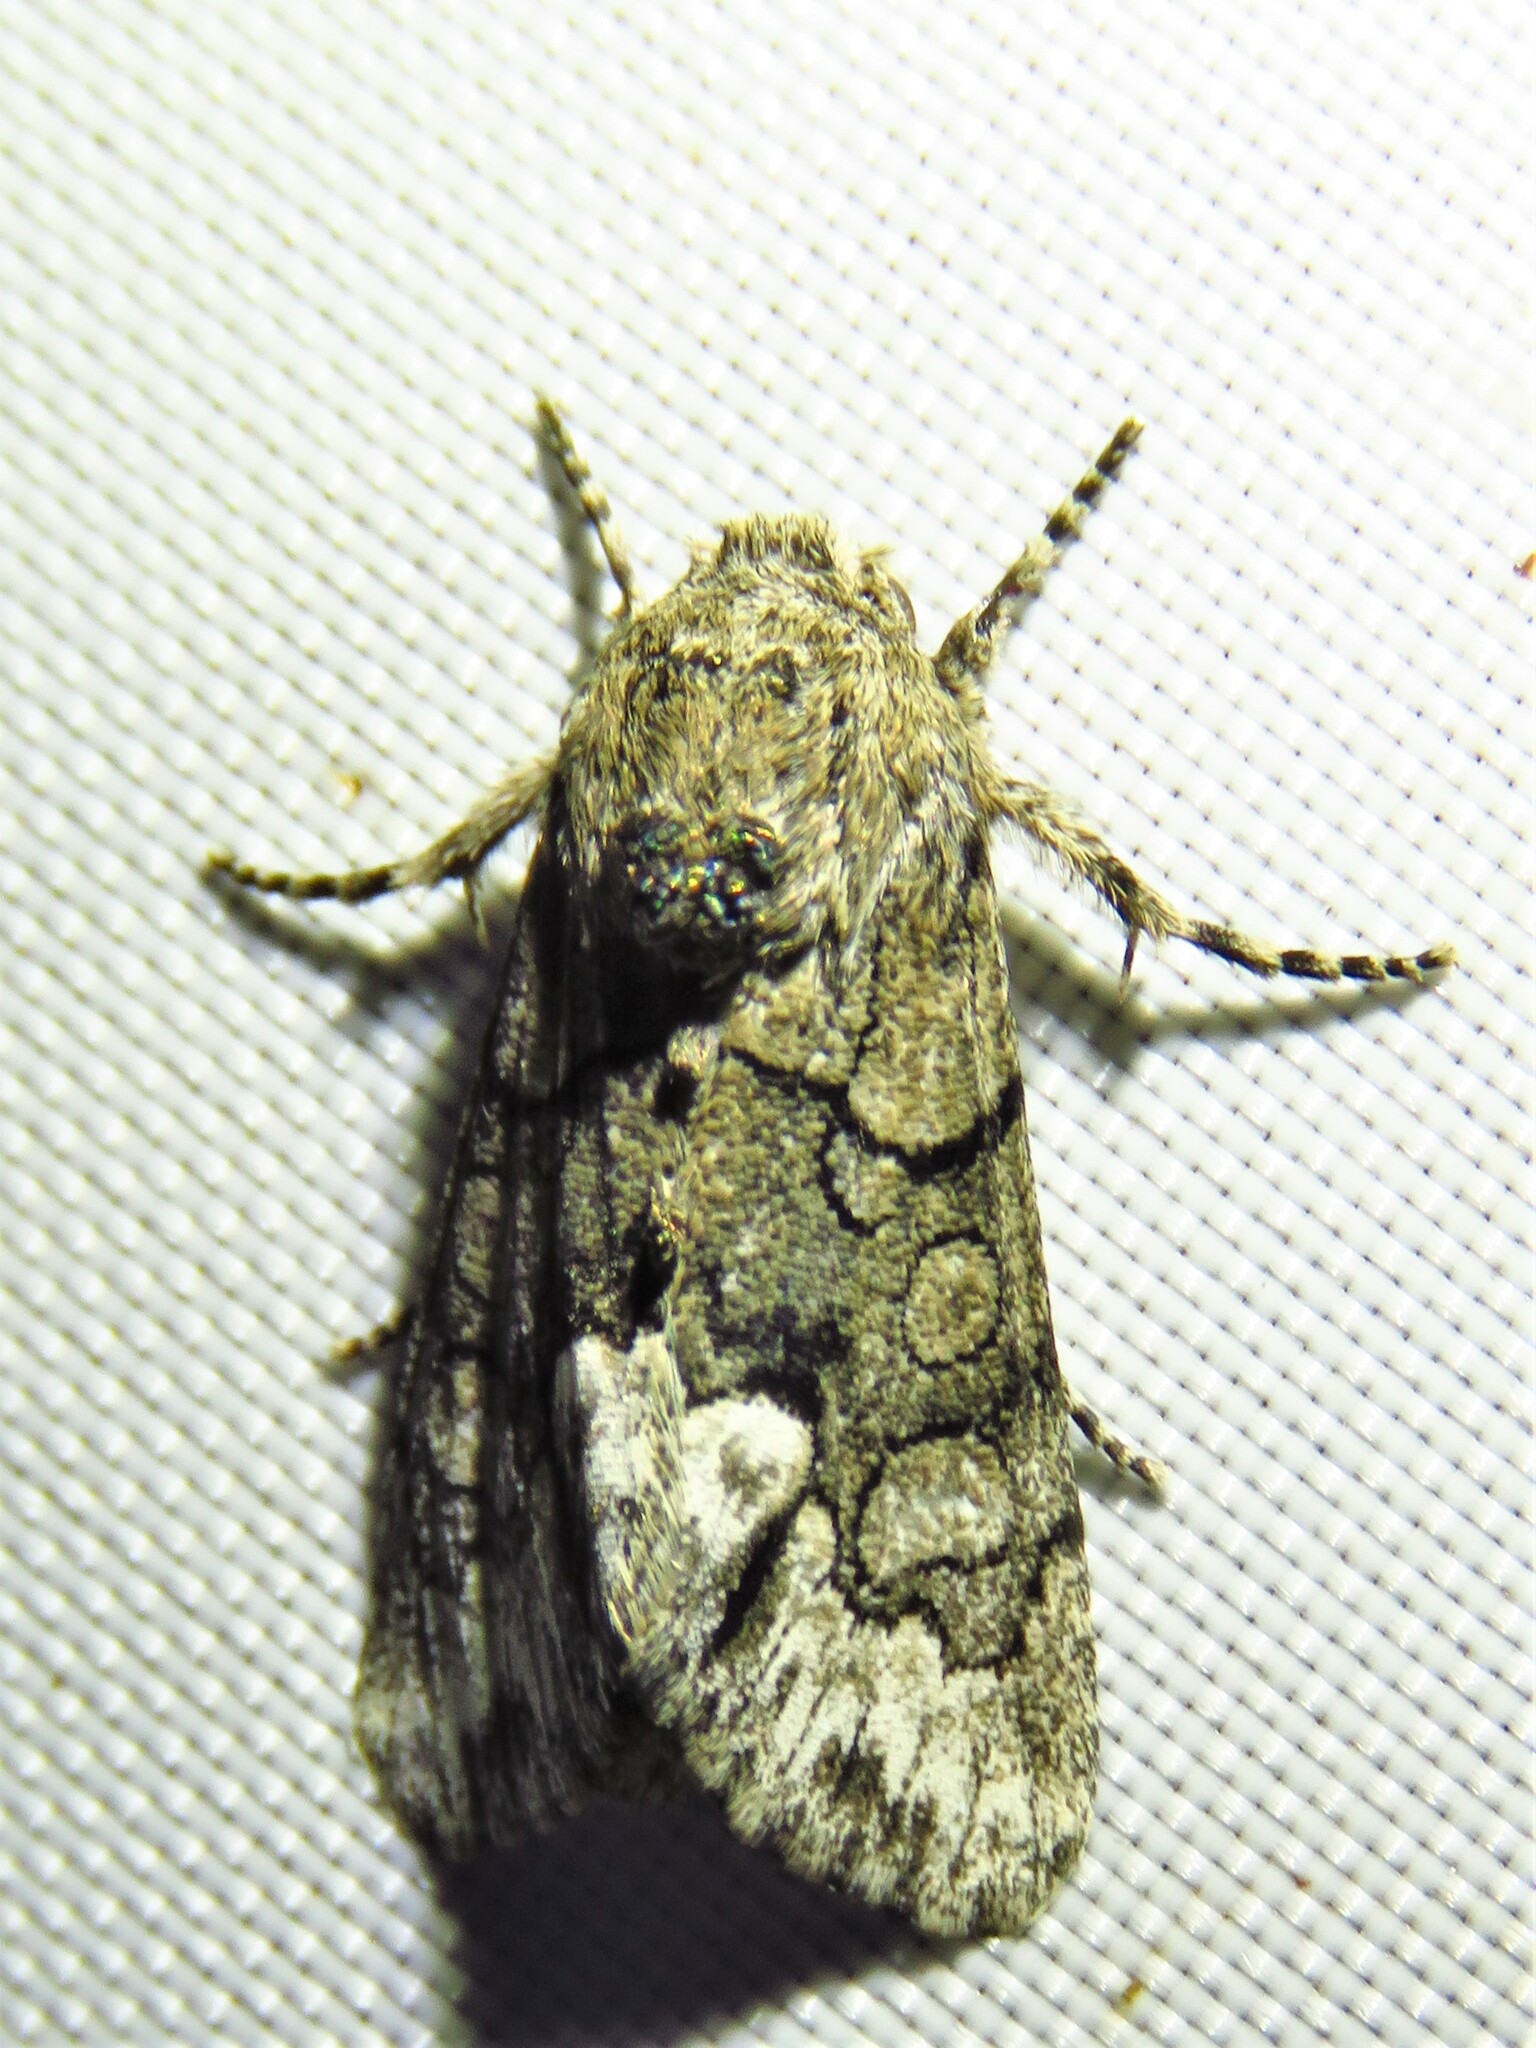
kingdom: Animalia
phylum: Arthropoda
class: Insecta
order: Lepidoptera
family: Noctuidae
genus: Oxycnemis
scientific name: Oxycnemis grandimacula
